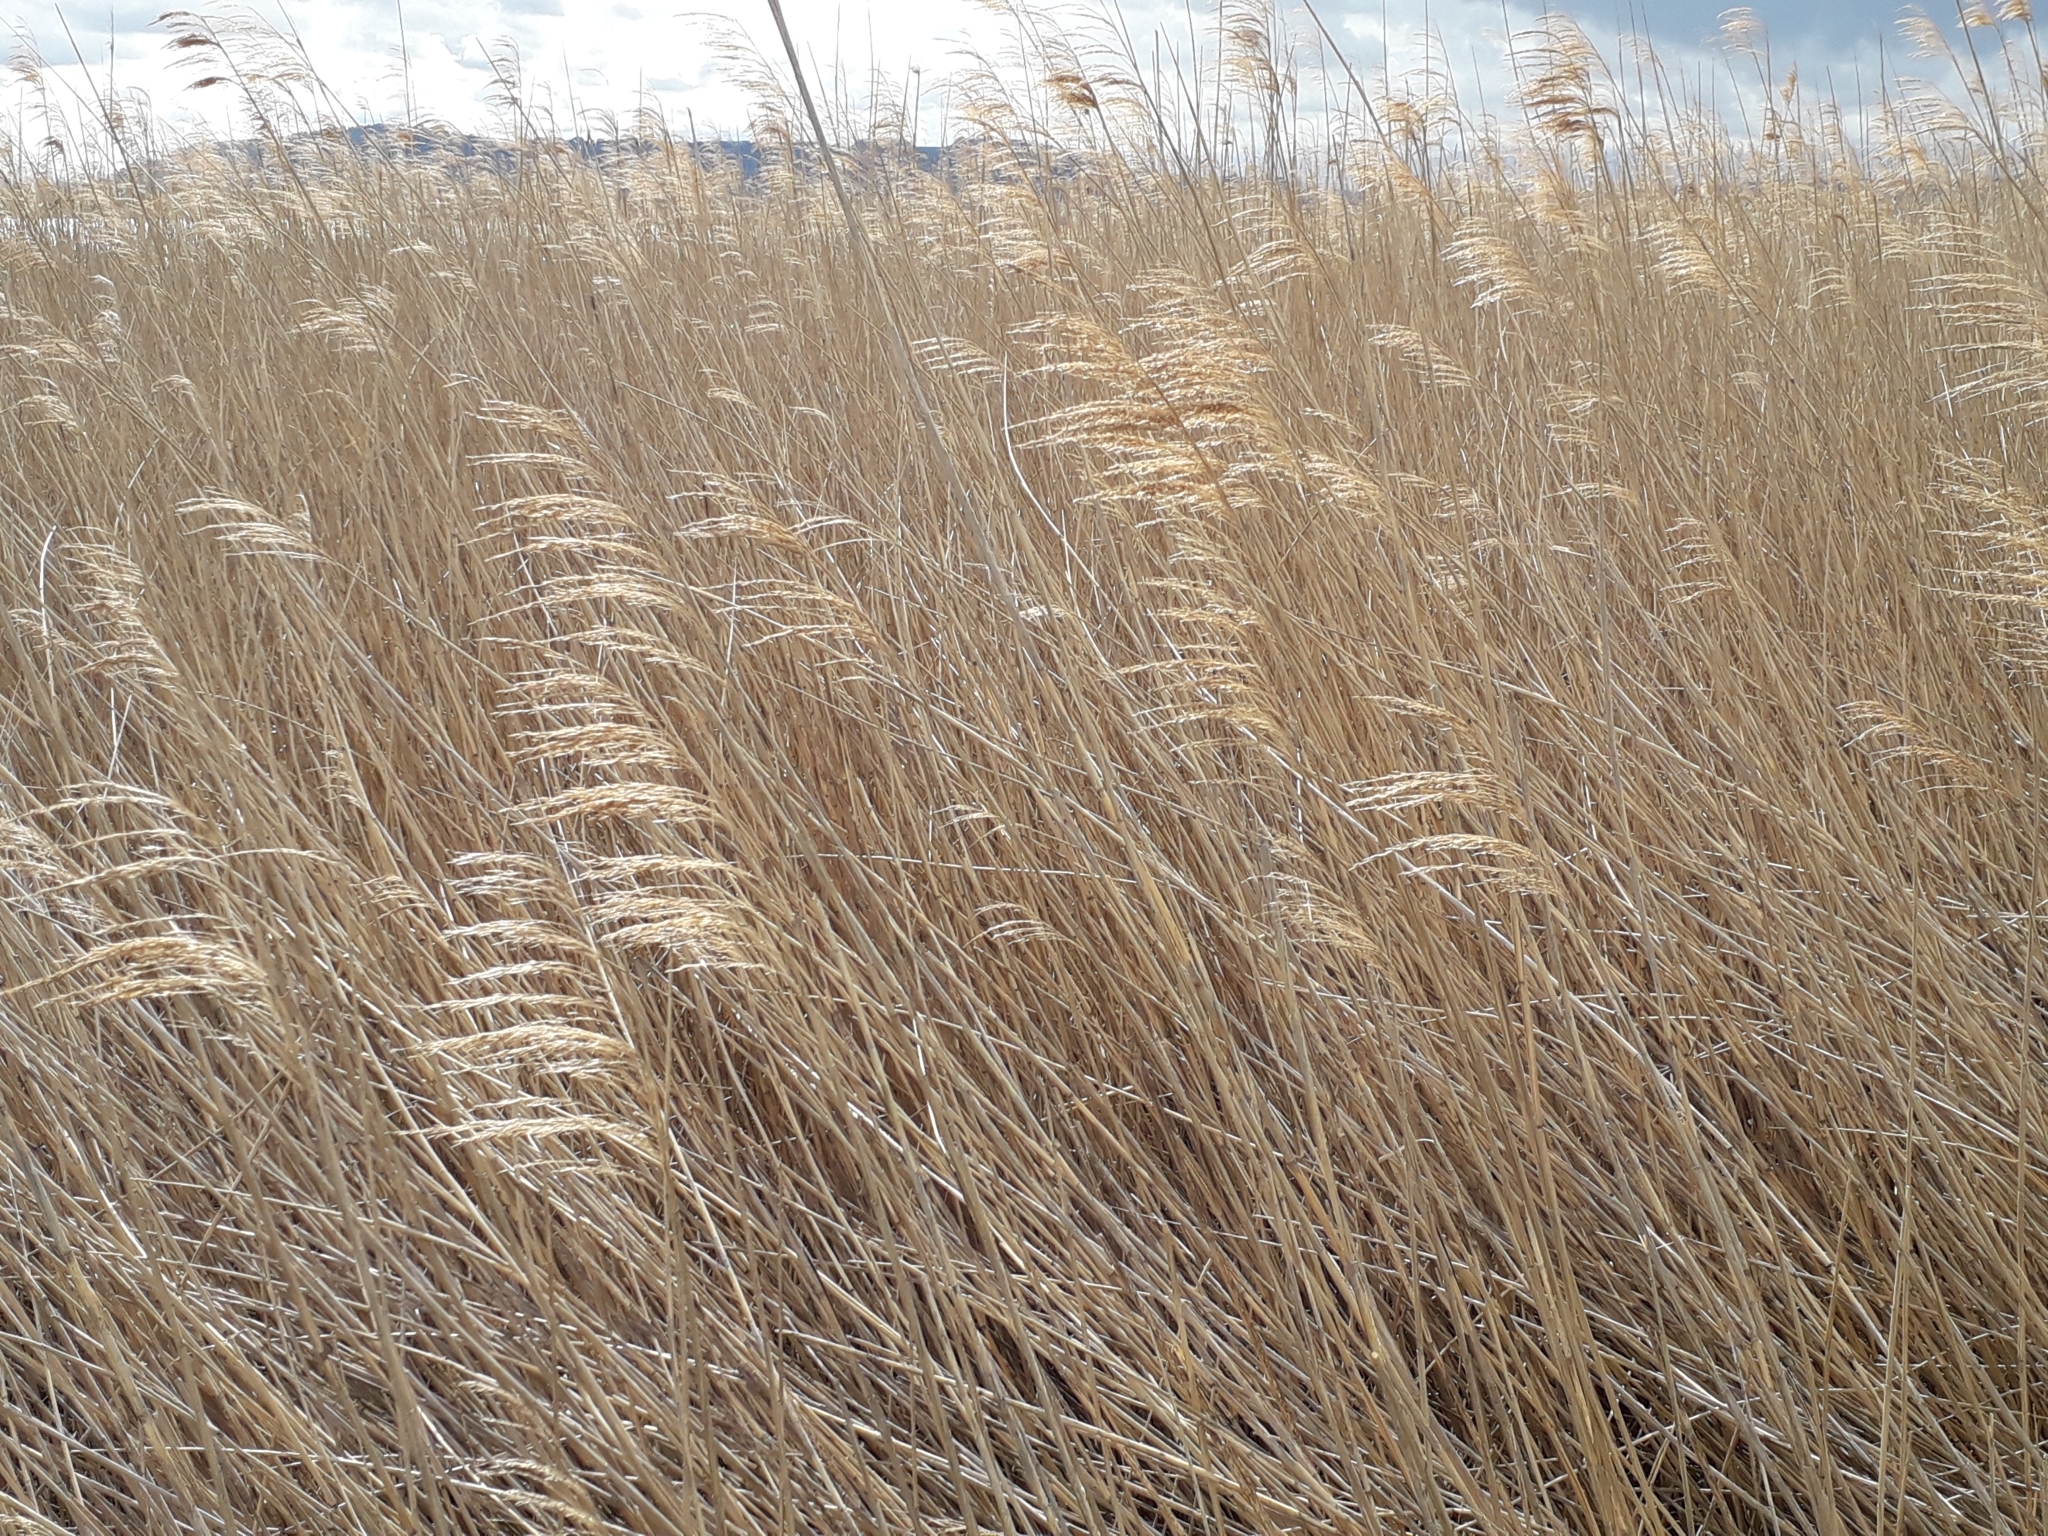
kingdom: Plantae
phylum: Tracheophyta
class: Liliopsida
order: Poales
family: Poaceae
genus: Phragmites
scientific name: Phragmites australis
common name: Common reed
